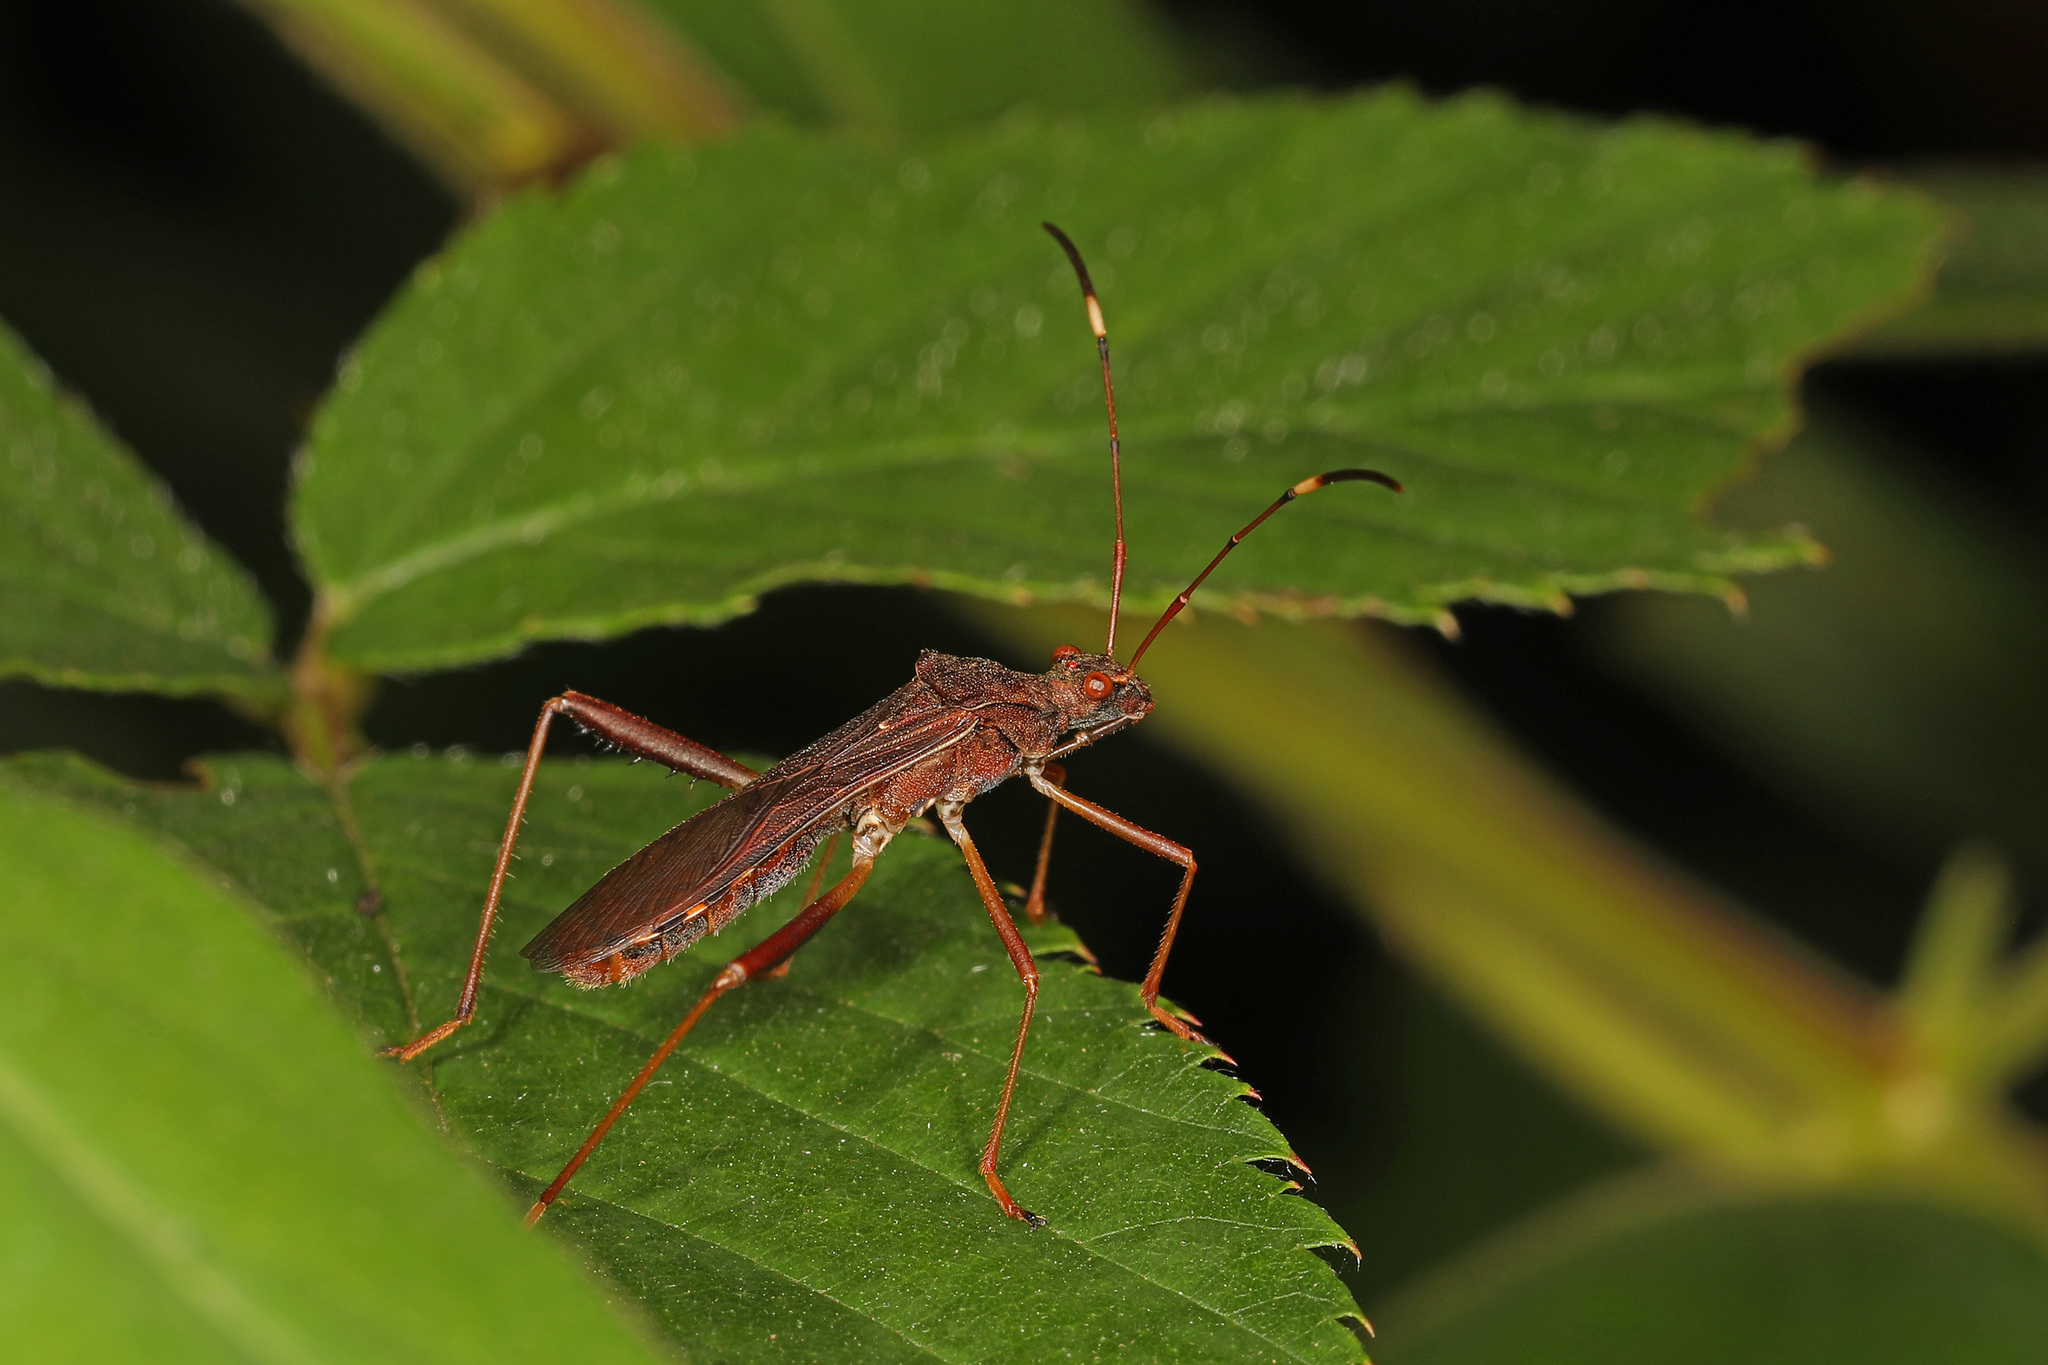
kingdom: Animalia
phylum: Arthropoda
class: Insecta
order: Hemiptera
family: Alydidae
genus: Megalotomus
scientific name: Megalotomus quinquespinosus
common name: Lupine bug
